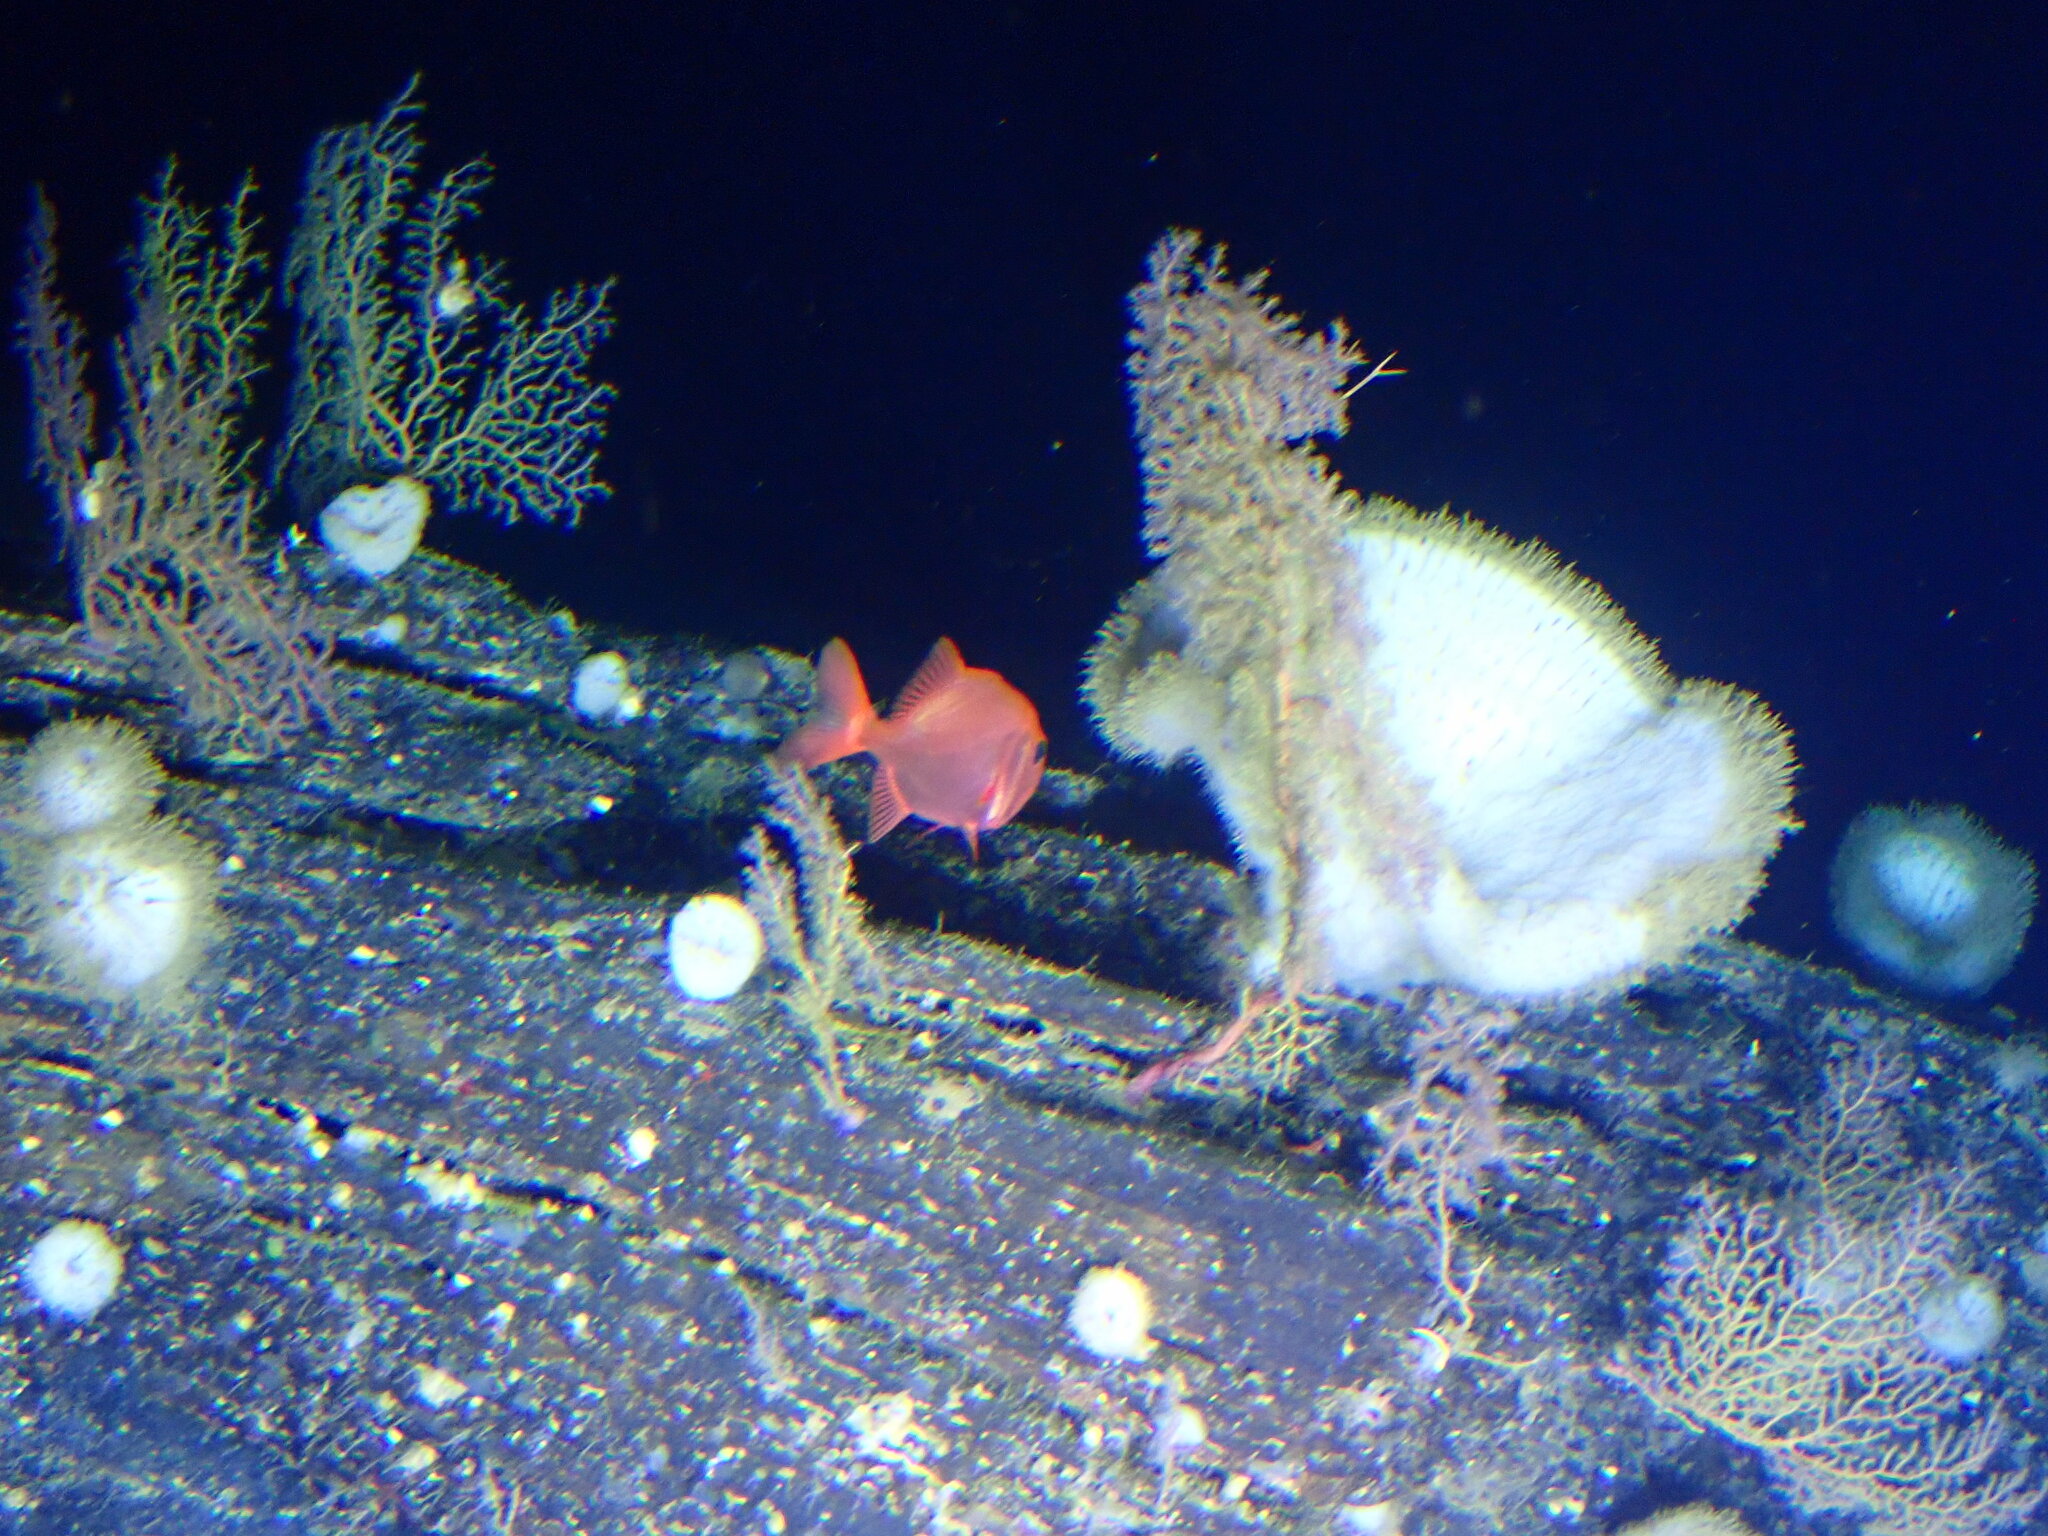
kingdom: Animalia
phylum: Chordata
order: Beryciformes
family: Trachichthyidae
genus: Gephyroberyx
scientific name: Gephyroberyx darwinii
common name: Big roughy
